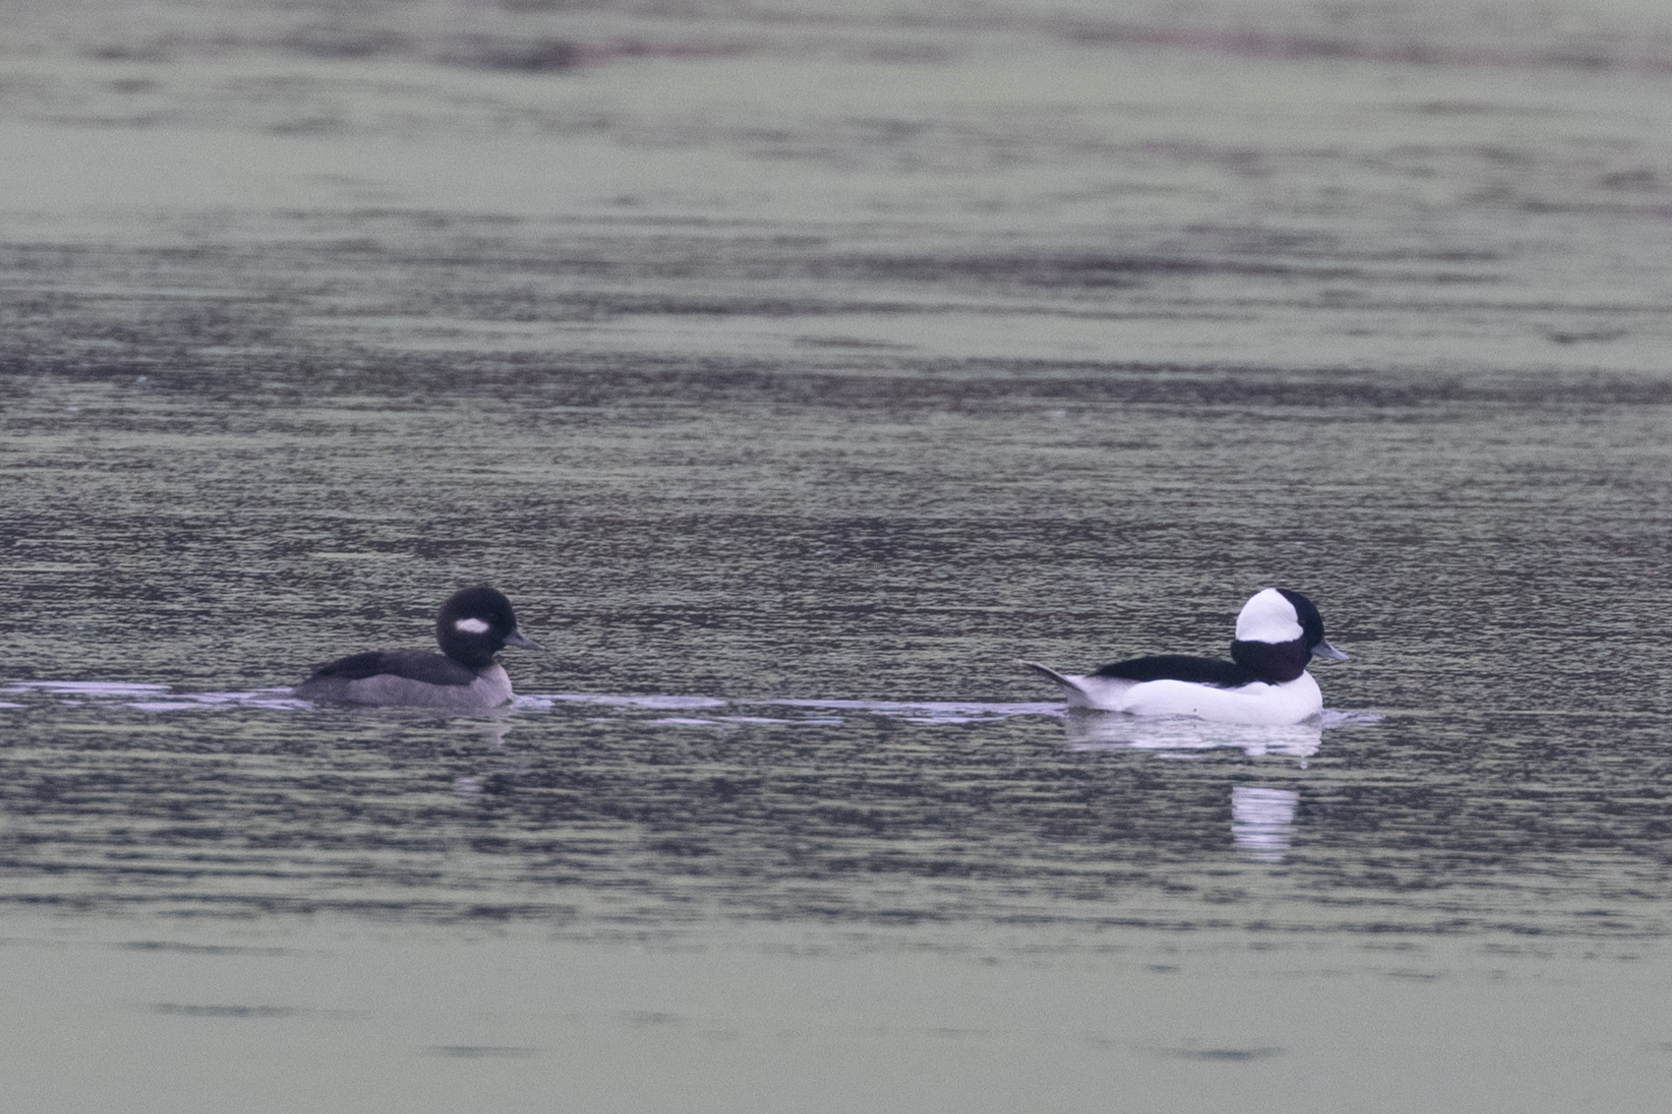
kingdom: Animalia
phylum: Chordata
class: Aves
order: Anseriformes
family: Anatidae
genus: Bucephala
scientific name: Bucephala albeola
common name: Bufflehead
